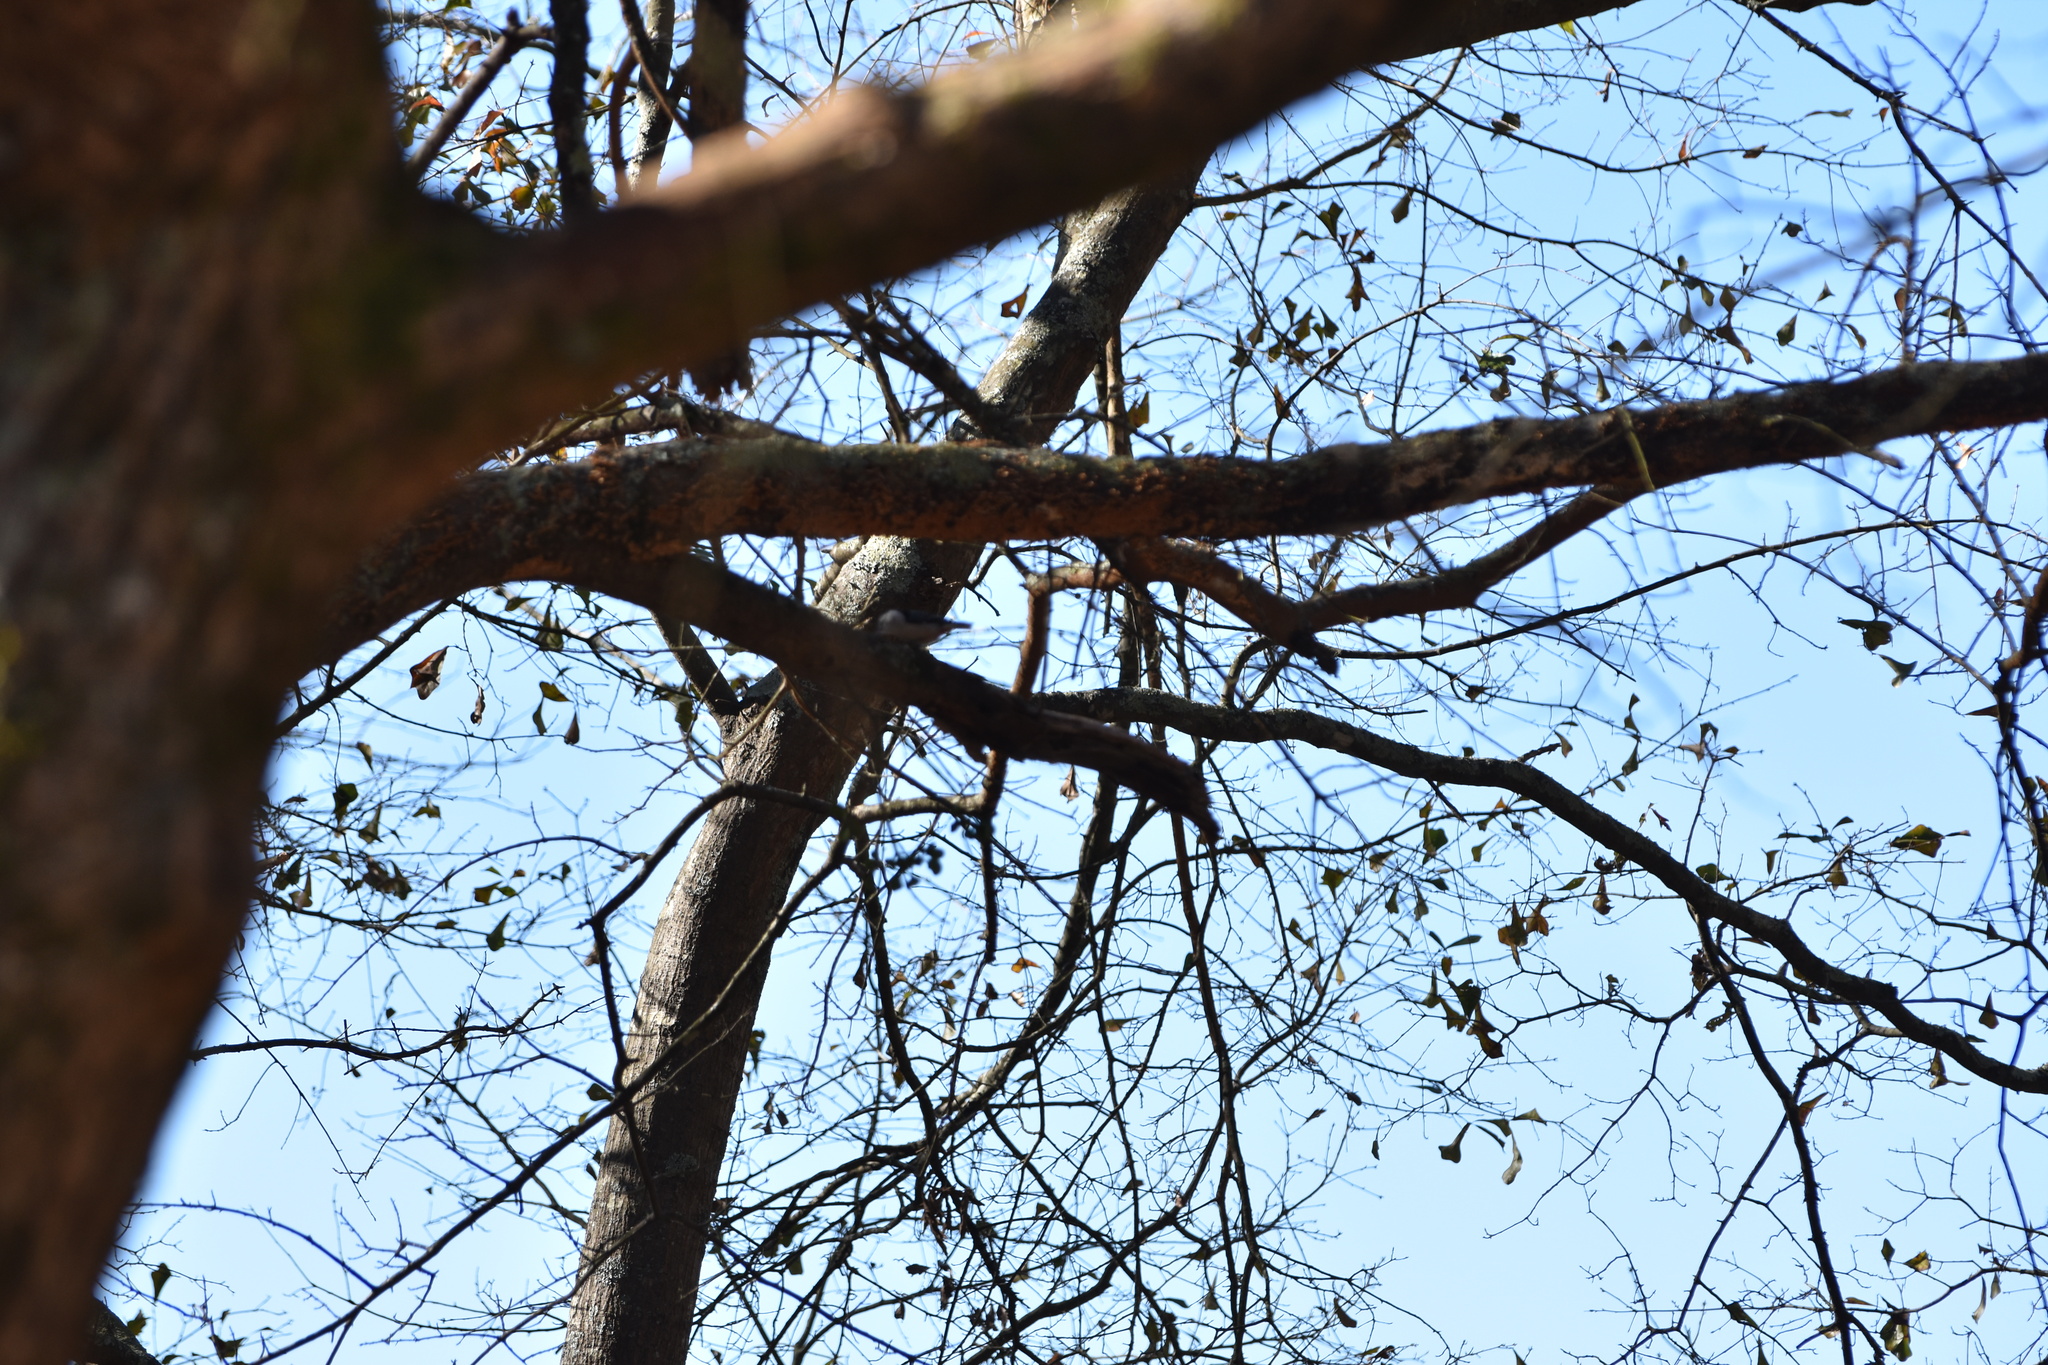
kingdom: Animalia
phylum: Chordata
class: Aves
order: Passeriformes
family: Sittidae
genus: Sitta
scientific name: Sitta carolinensis
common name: White-breasted nuthatch
